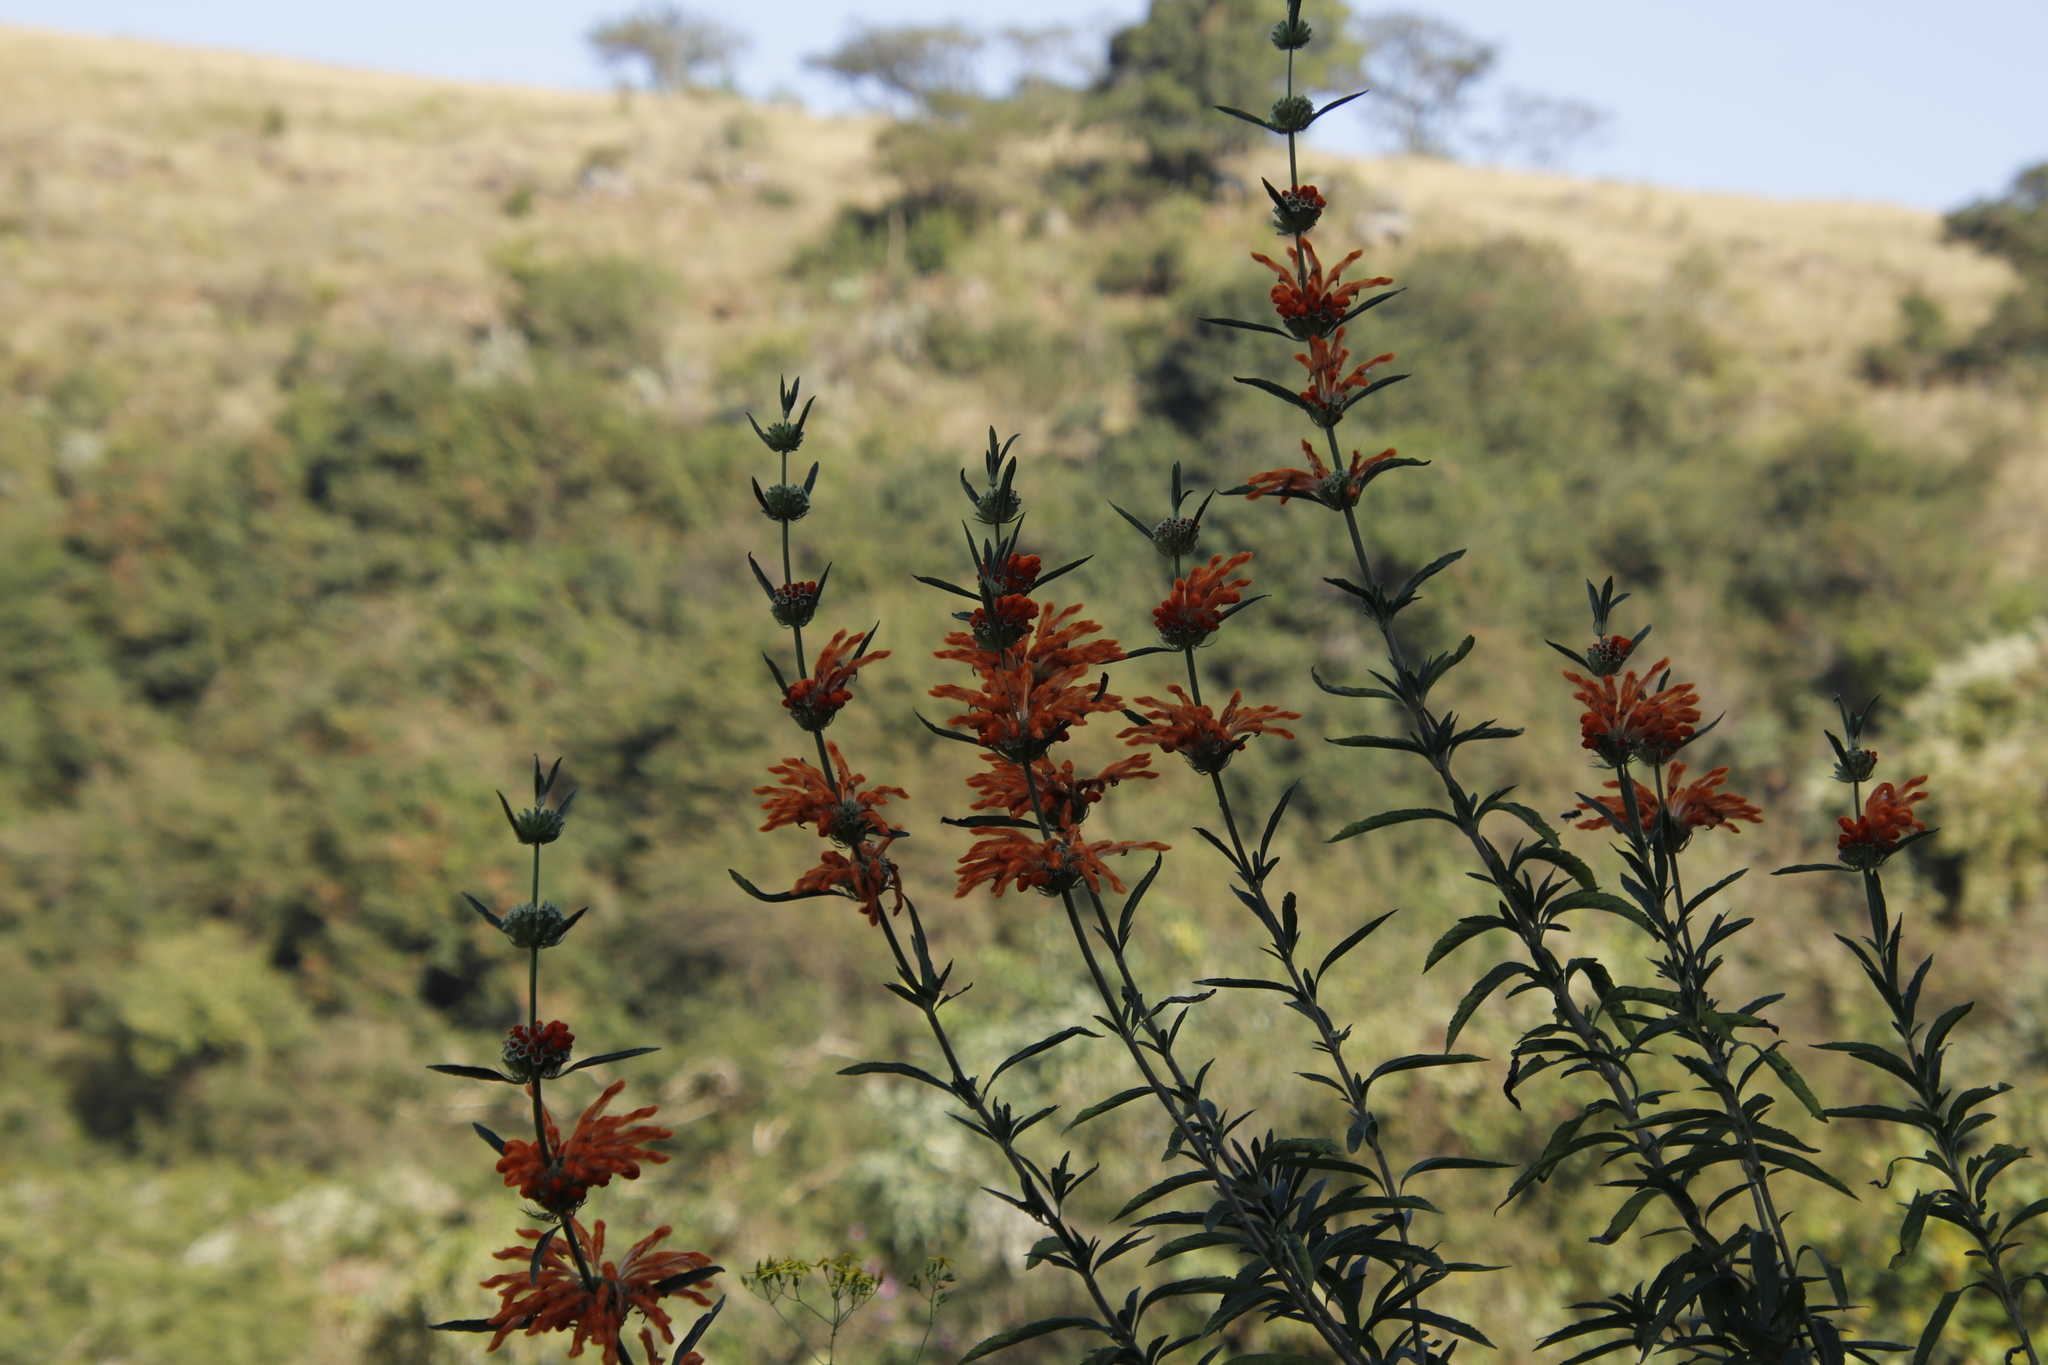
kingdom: Plantae
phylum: Tracheophyta
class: Magnoliopsida
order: Lamiales
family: Lamiaceae
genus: Leonotis
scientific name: Leonotis leonurus
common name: Lion's ear
